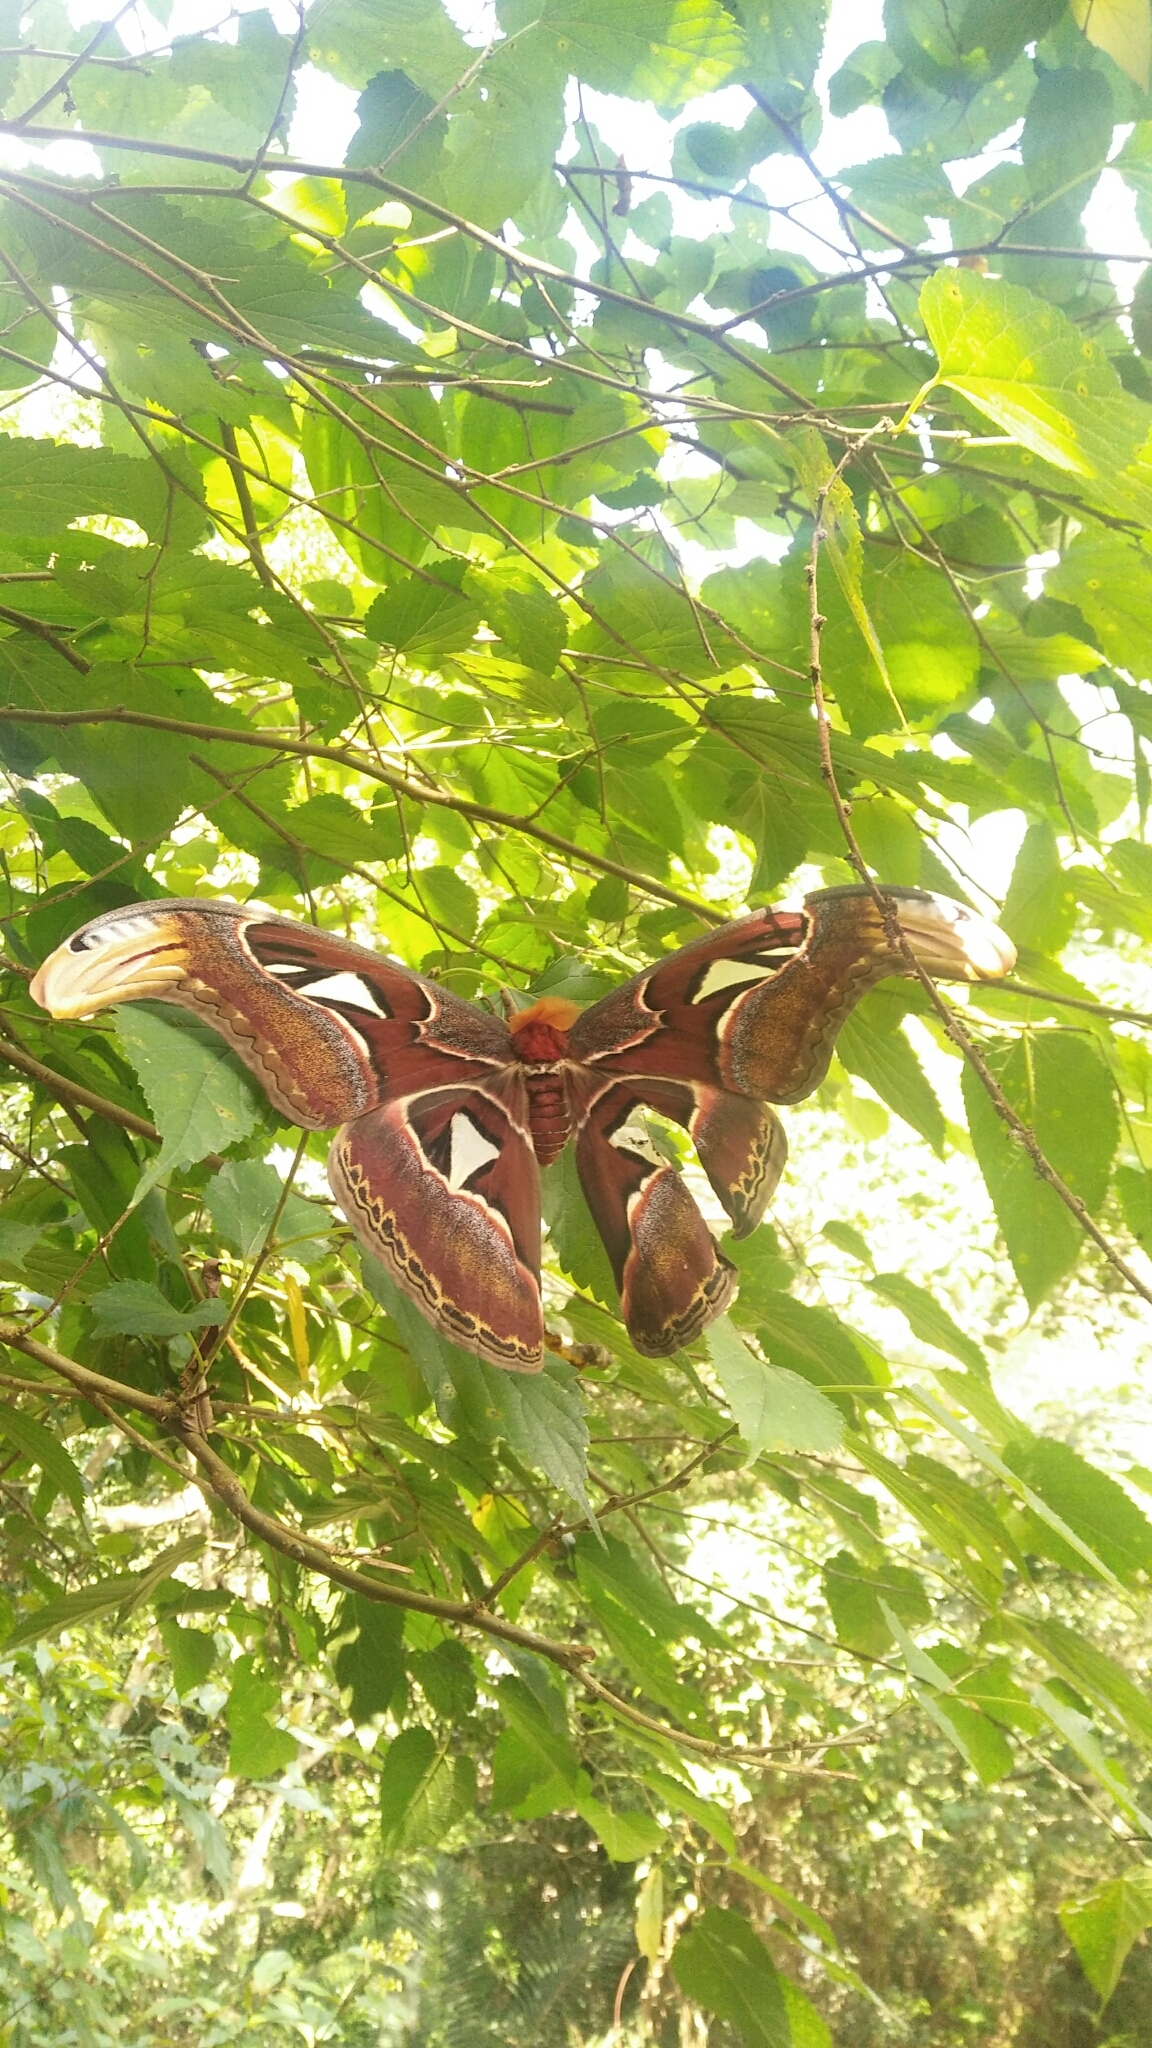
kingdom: Animalia
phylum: Arthropoda
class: Insecta
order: Lepidoptera
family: Saturniidae
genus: Attacus
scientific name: Attacus atlas
